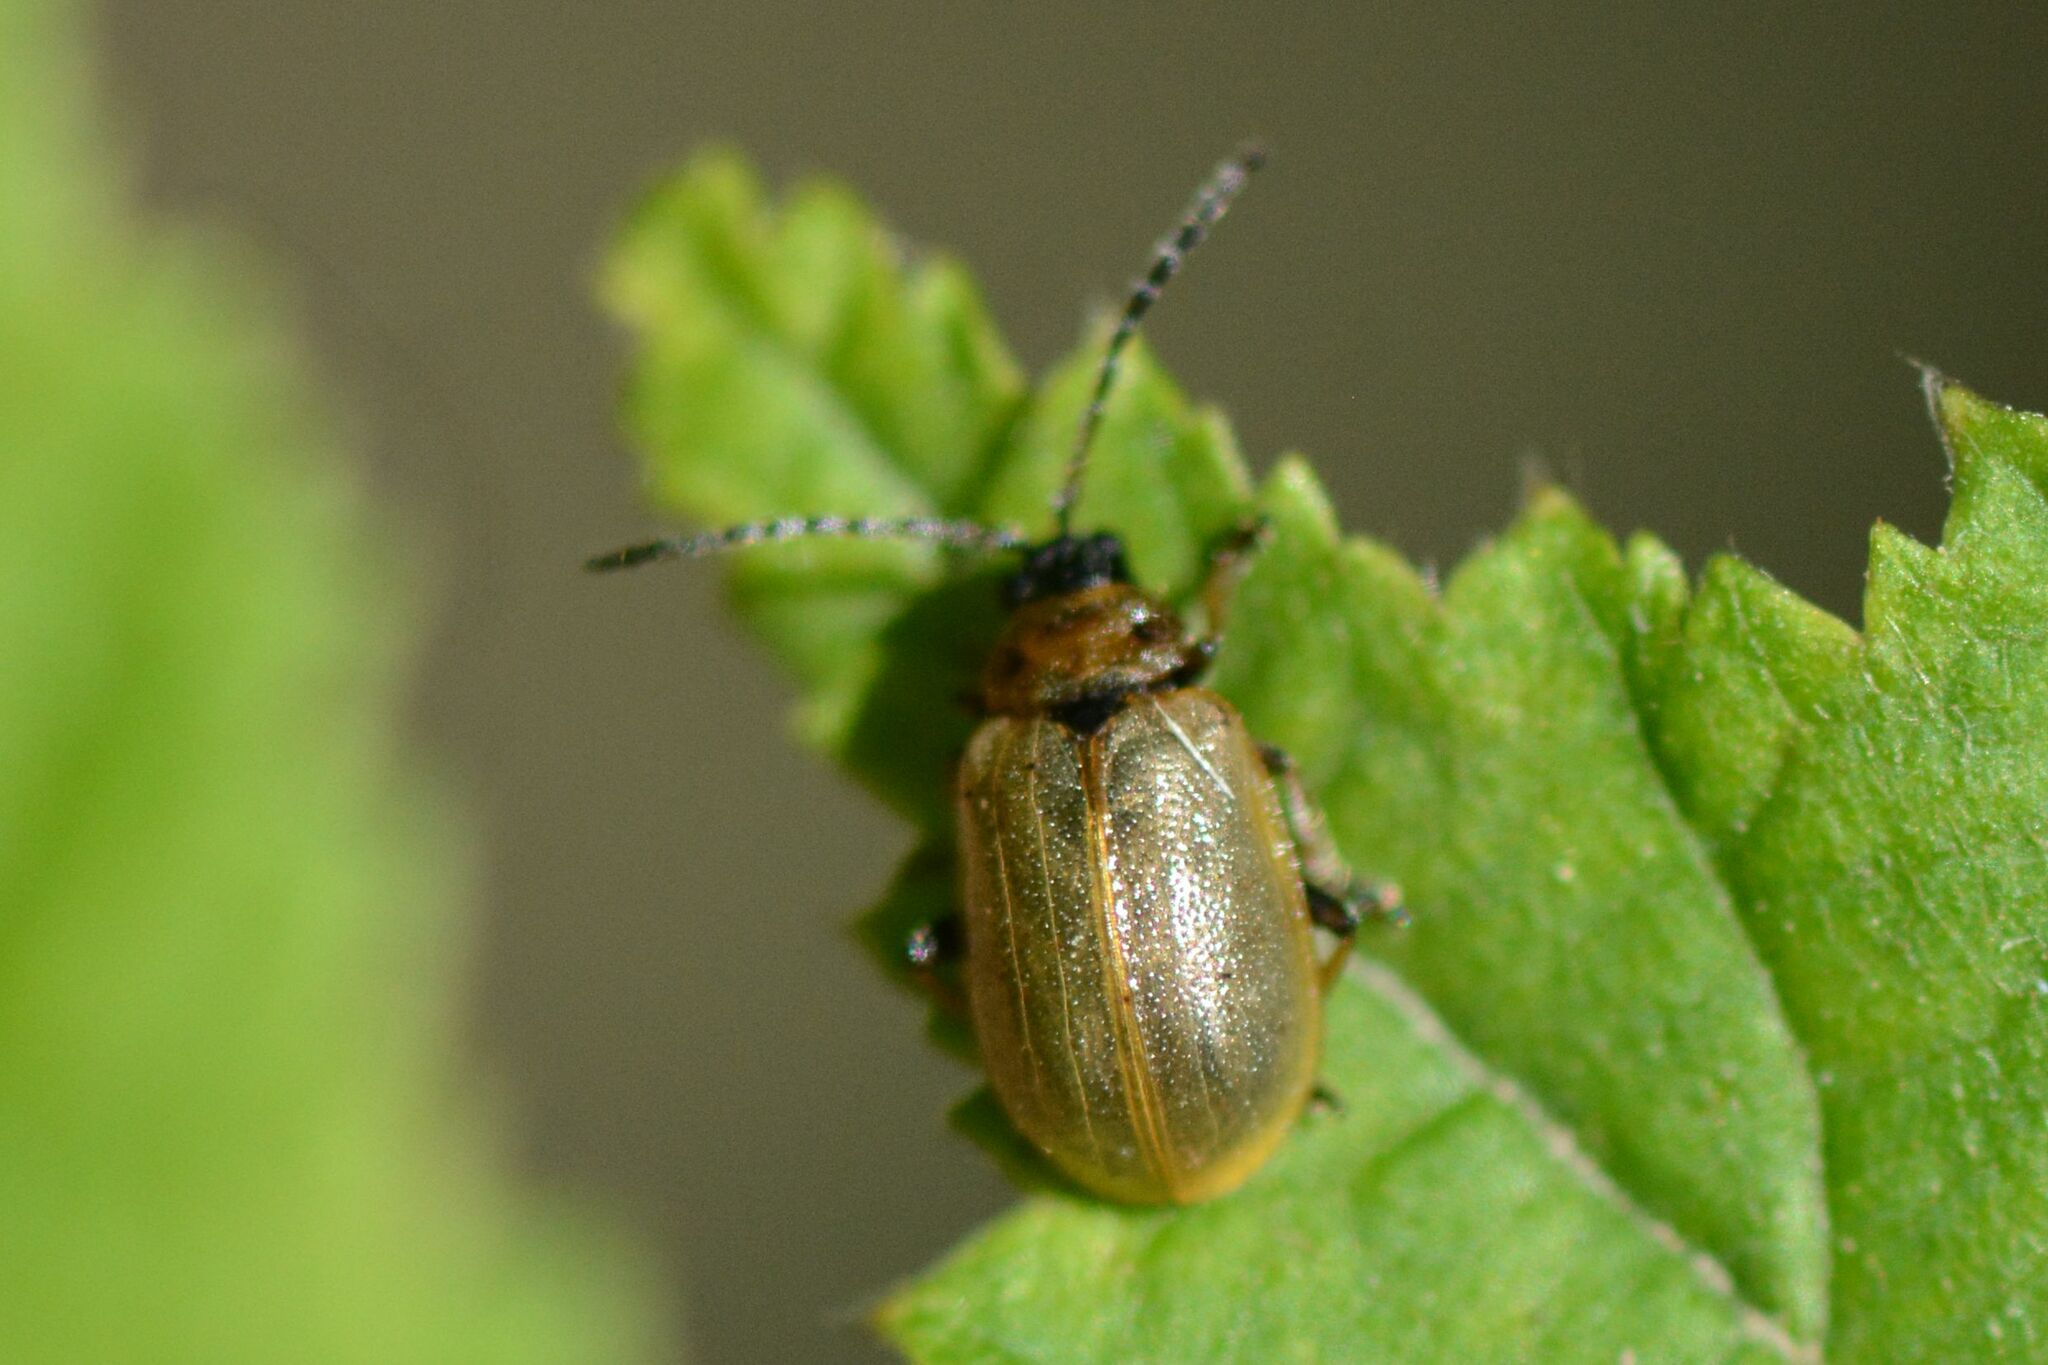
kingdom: Animalia
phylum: Arthropoda
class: Insecta
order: Coleoptera
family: Chrysomelidae
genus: Lochmaea
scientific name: Lochmaea caprea
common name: Willow leaf beetle
